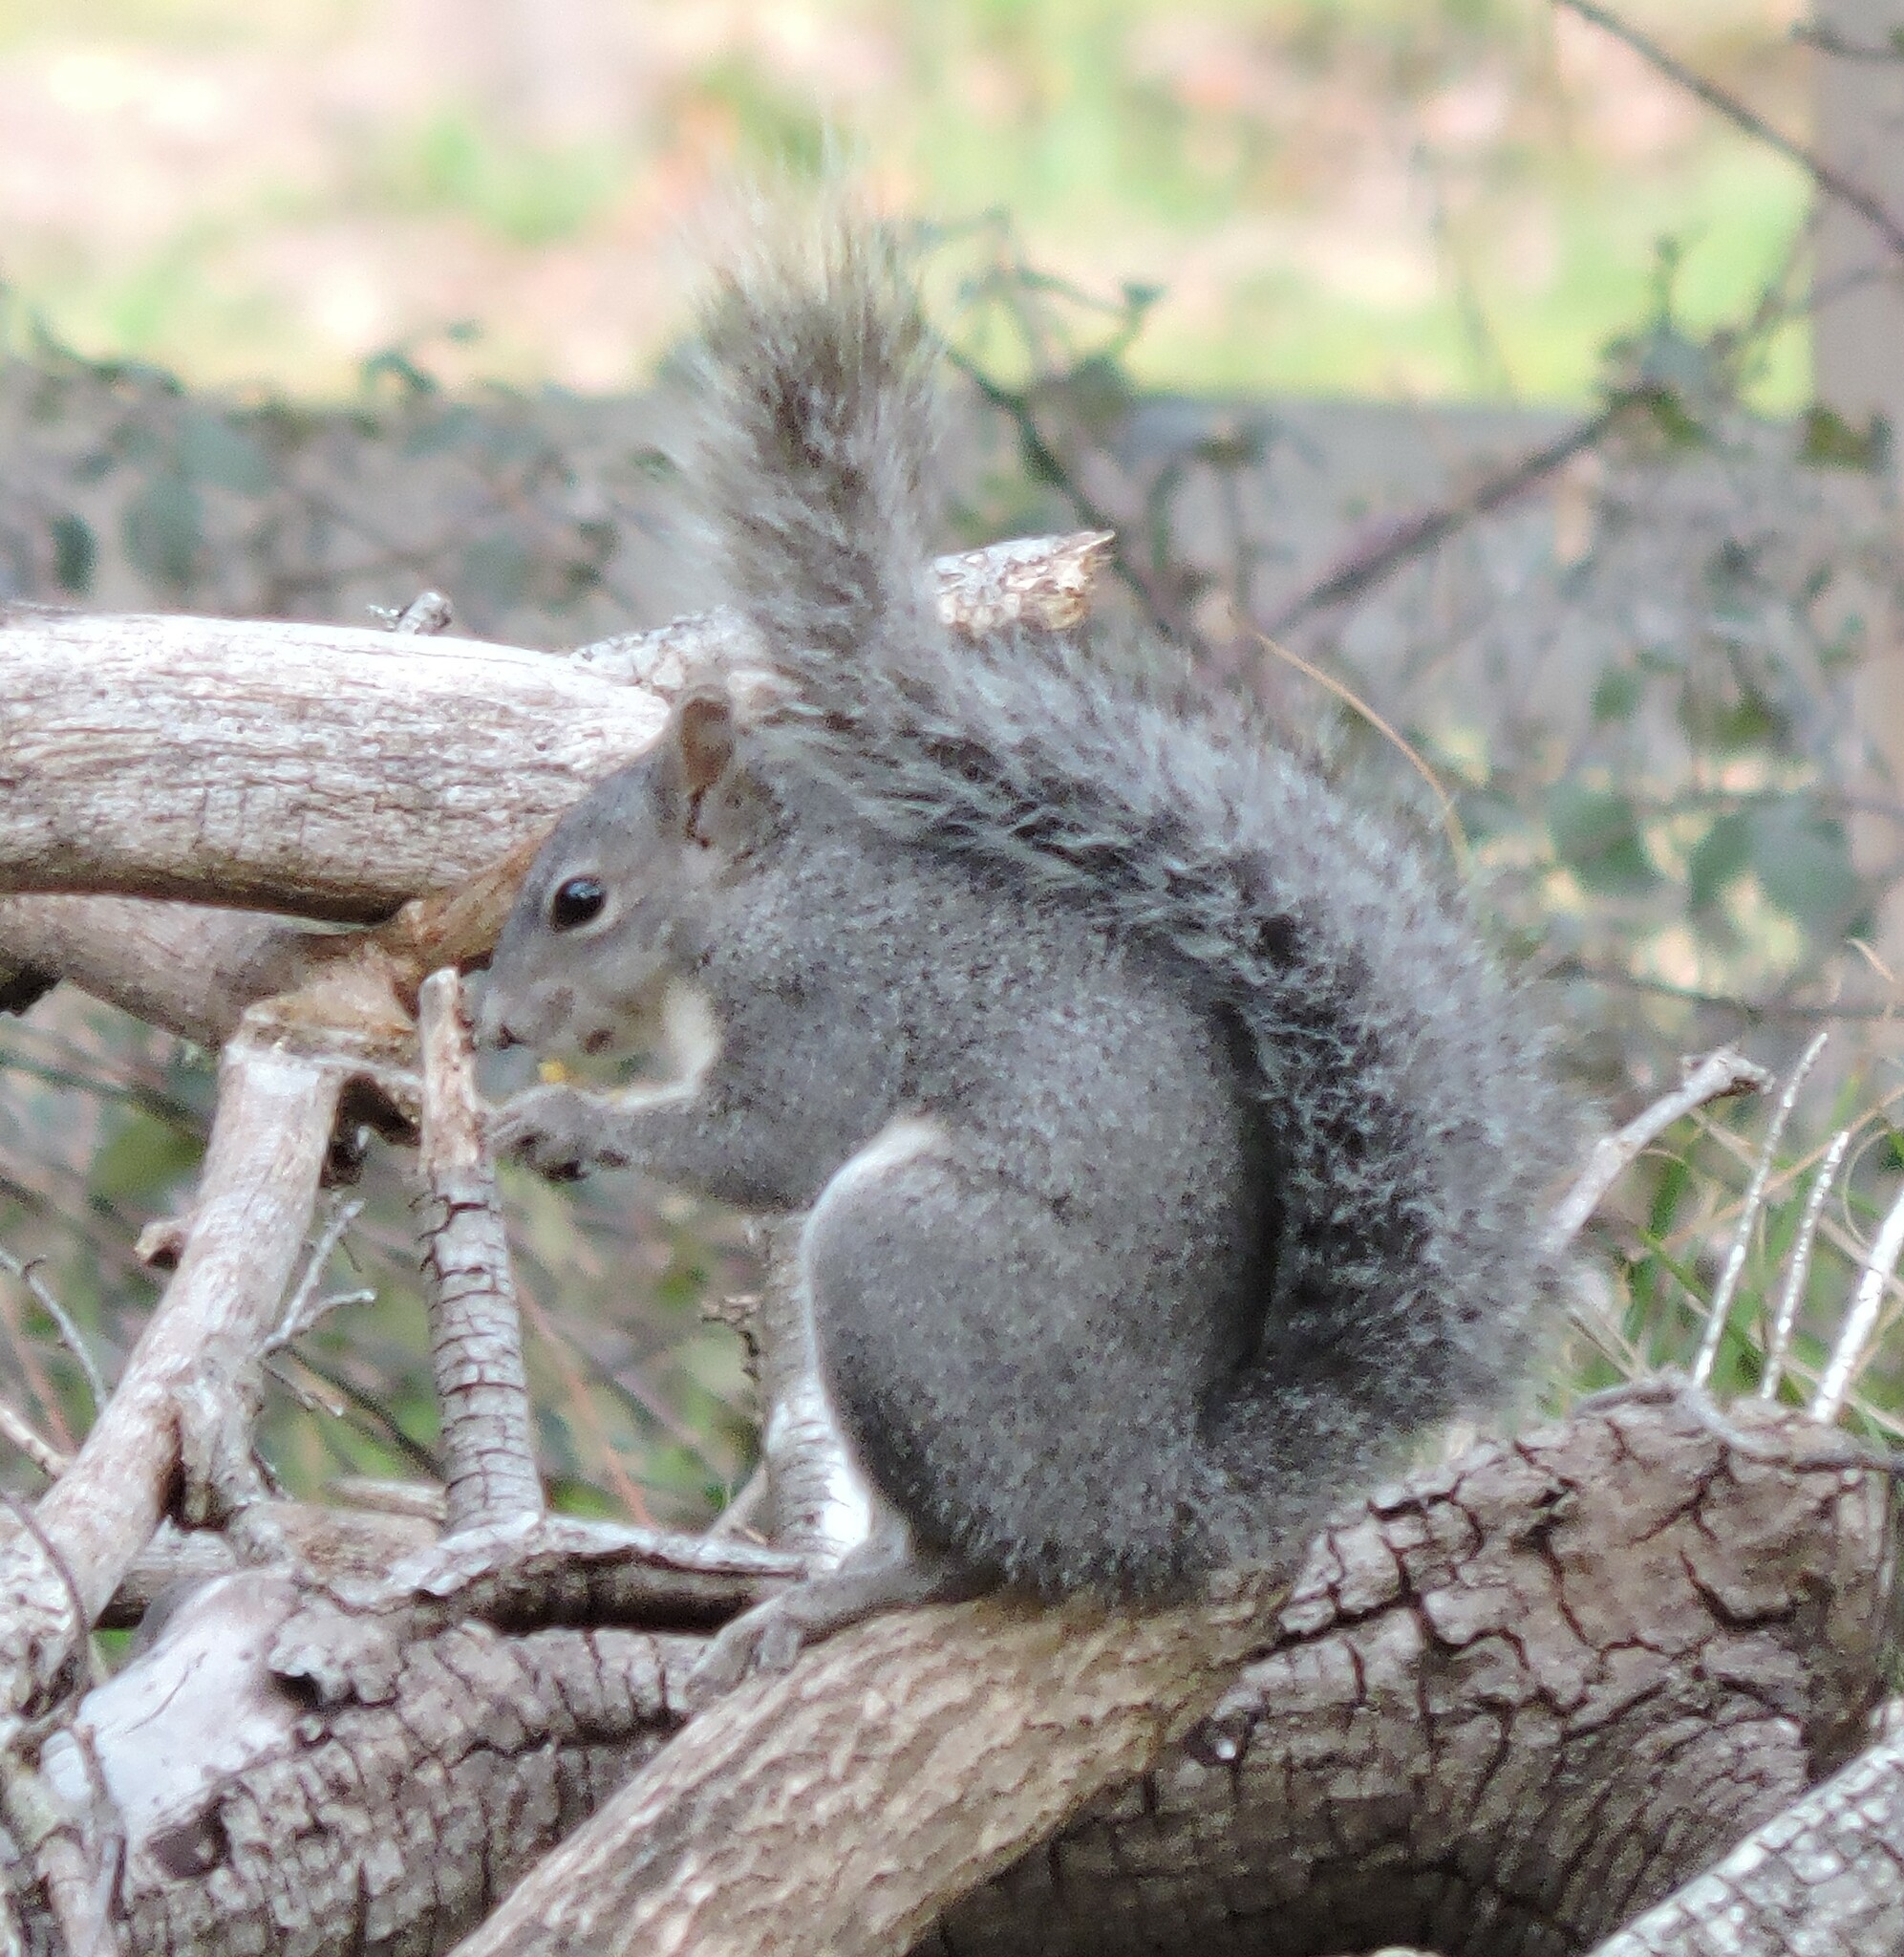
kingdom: Animalia
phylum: Chordata
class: Mammalia
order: Rodentia
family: Sciuridae
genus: Sciurus
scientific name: Sciurus griseus
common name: Western gray squirrel
